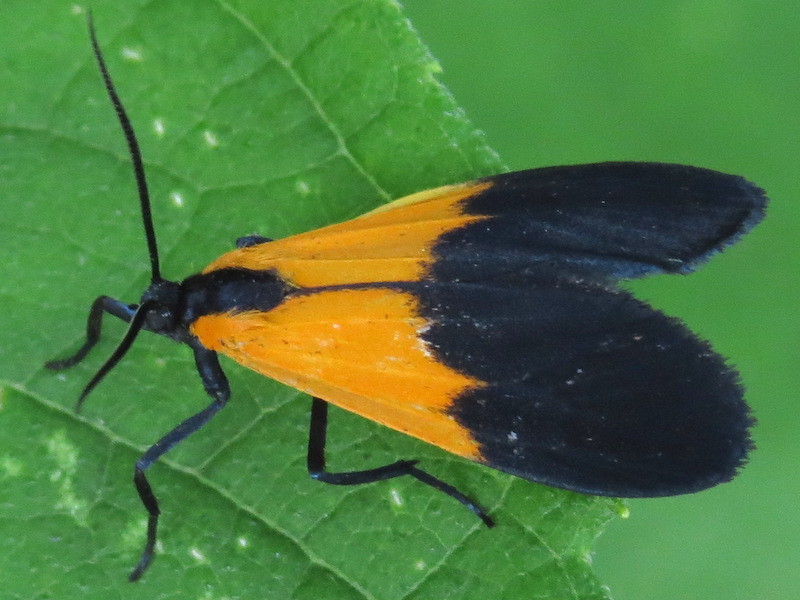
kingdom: Animalia
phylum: Arthropoda
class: Insecta
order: Lepidoptera
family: Erebidae
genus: Lycomorpha
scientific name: Lycomorpha pholus
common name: Black-and-yellow lichen moth
